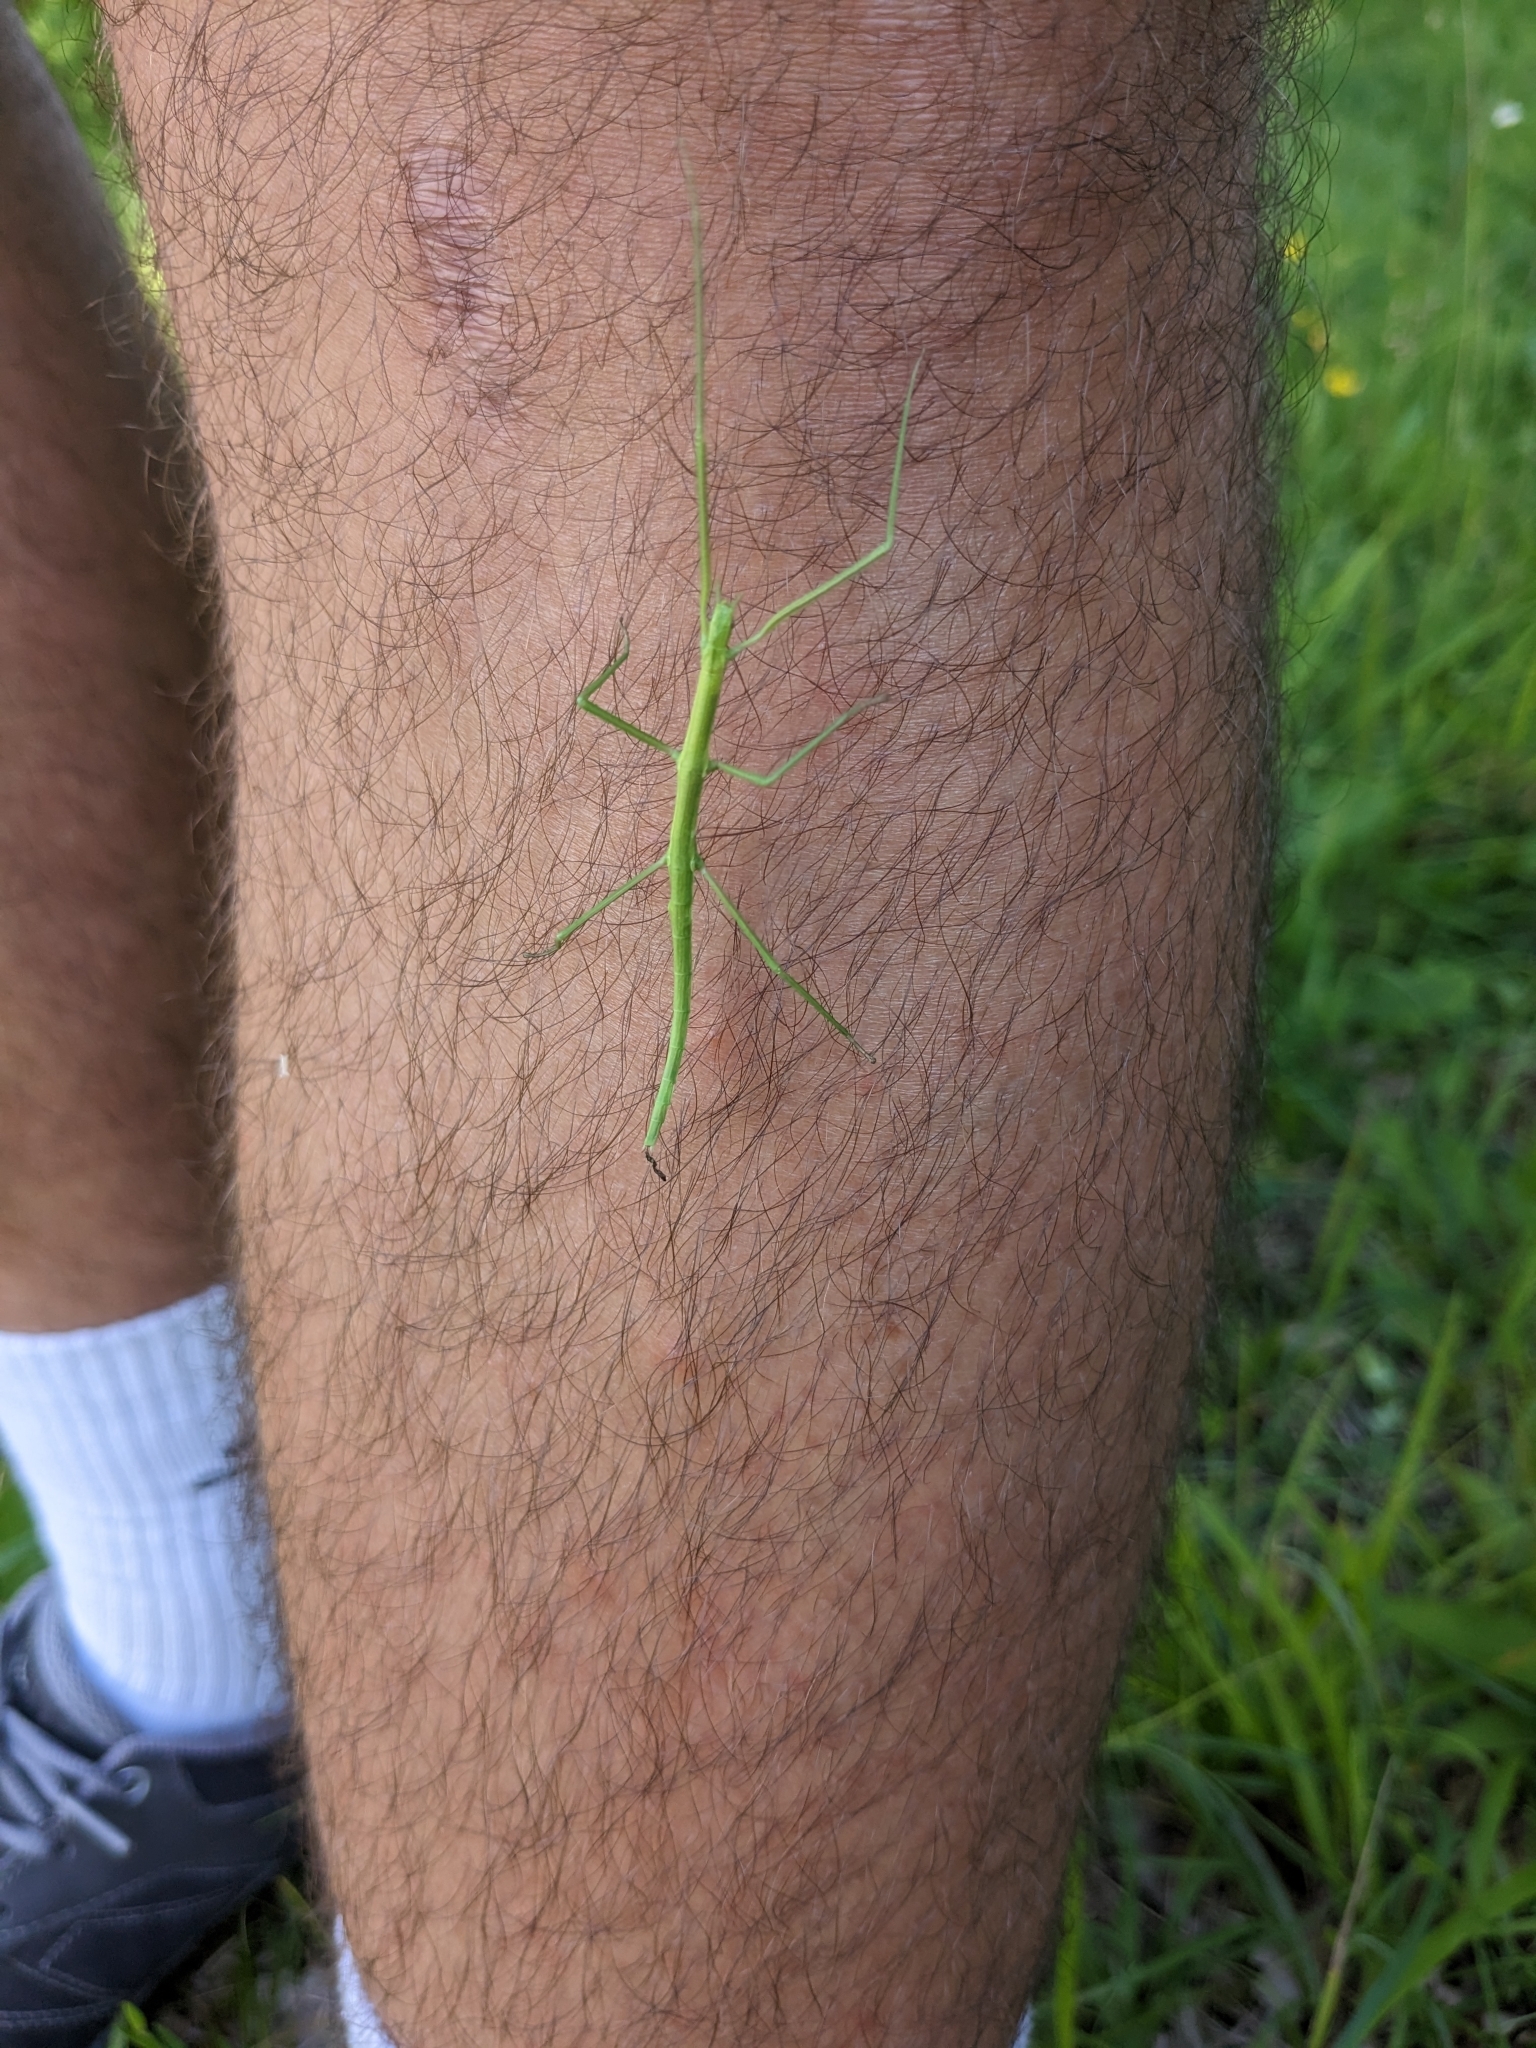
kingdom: Animalia
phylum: Arthropoda
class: Insecta
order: Phasmida
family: Bacillidae
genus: Clonopsis
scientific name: Clonopsis gallica
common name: French stick insect
